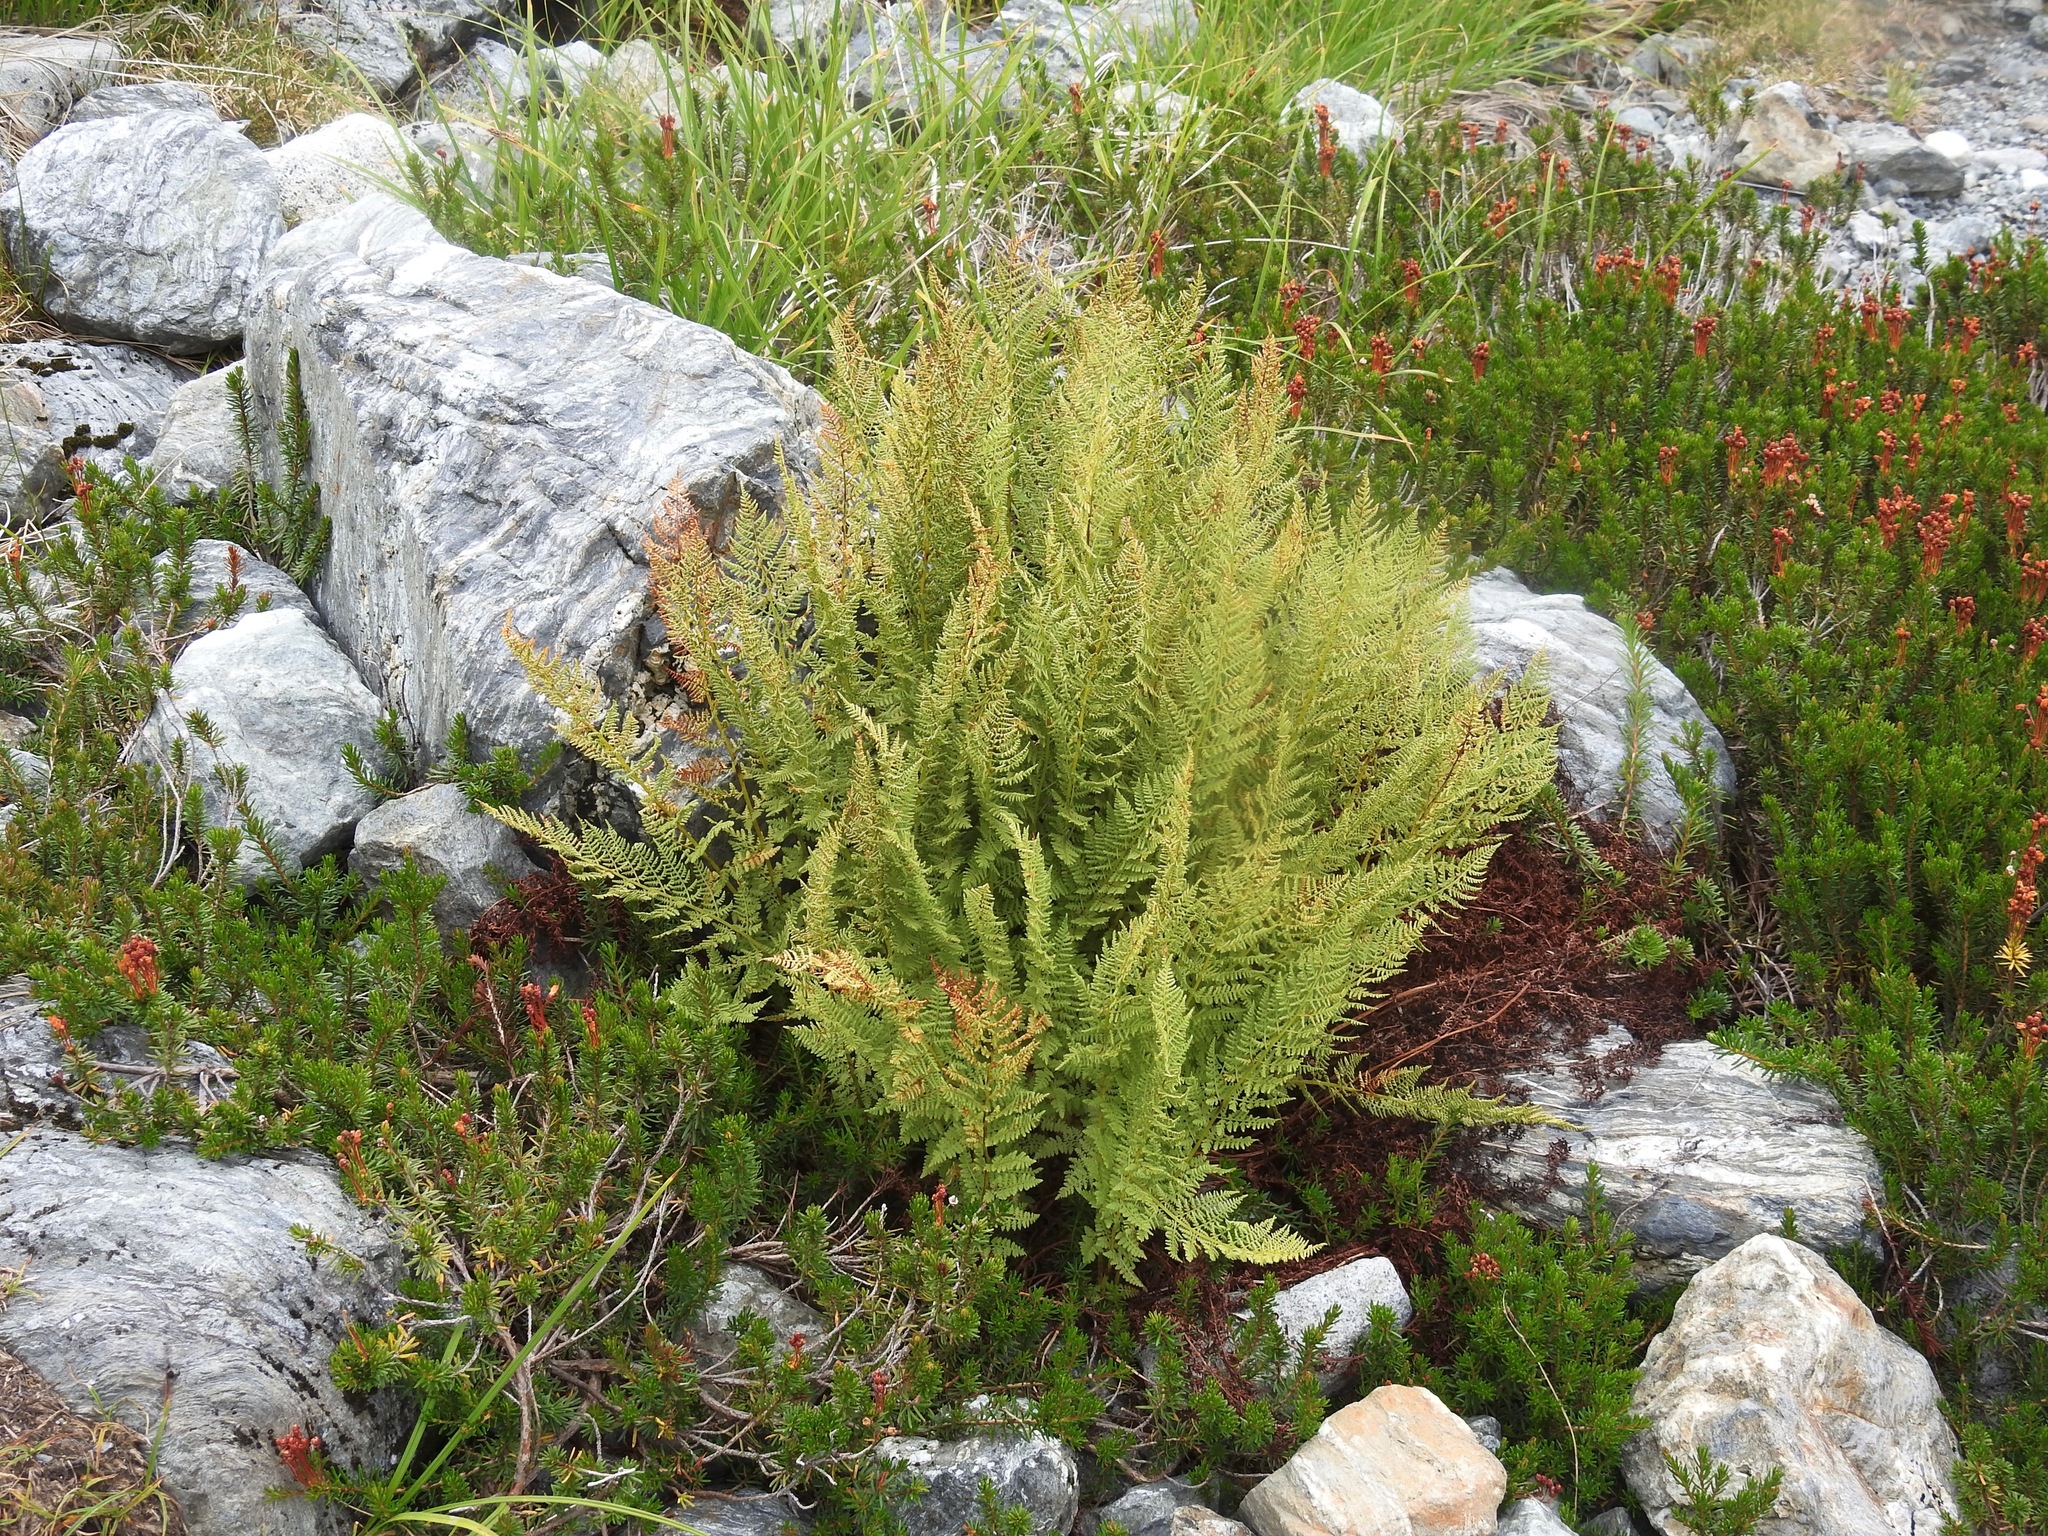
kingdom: Plantae
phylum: Tracheophyta
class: Polypodiopsida
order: Polypodiales
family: Athyriaceae
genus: Athyrium
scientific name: Athyrium americanum
